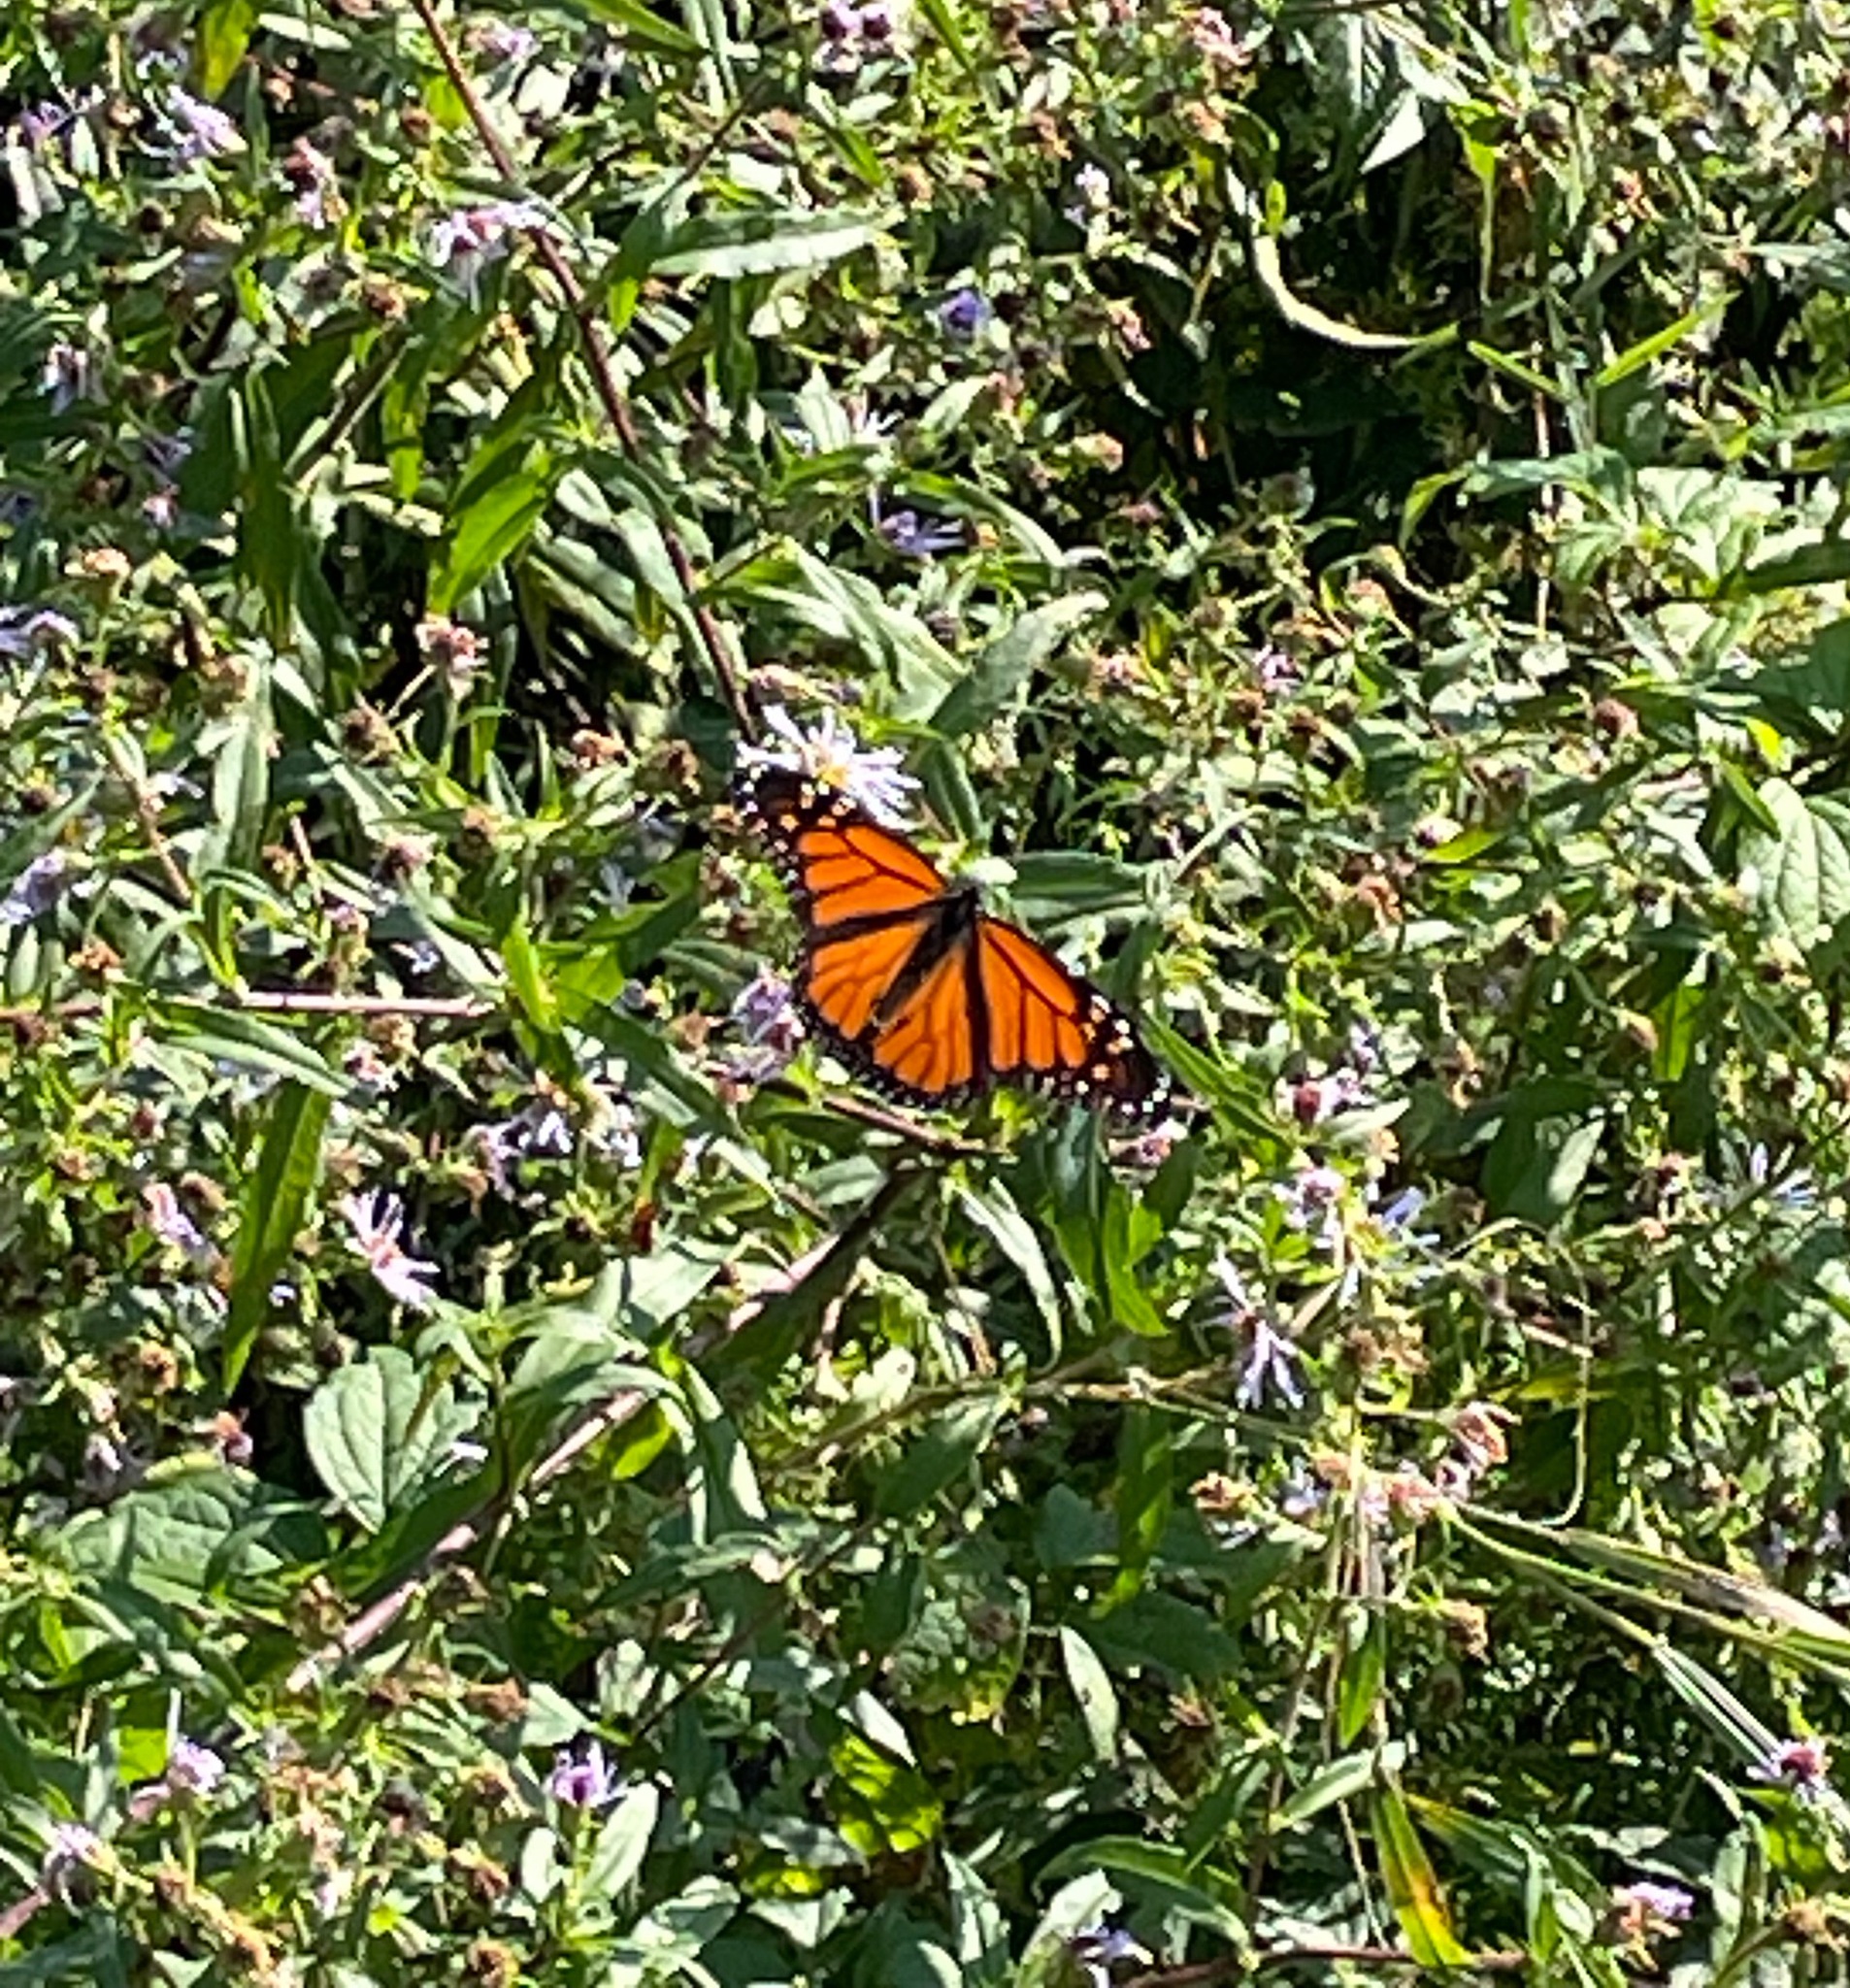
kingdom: Animalia
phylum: Arthropoda
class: Insecta
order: Lepidoptera
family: Nymphalidae
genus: Danaus
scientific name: Danaus plexippus
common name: Monarch
